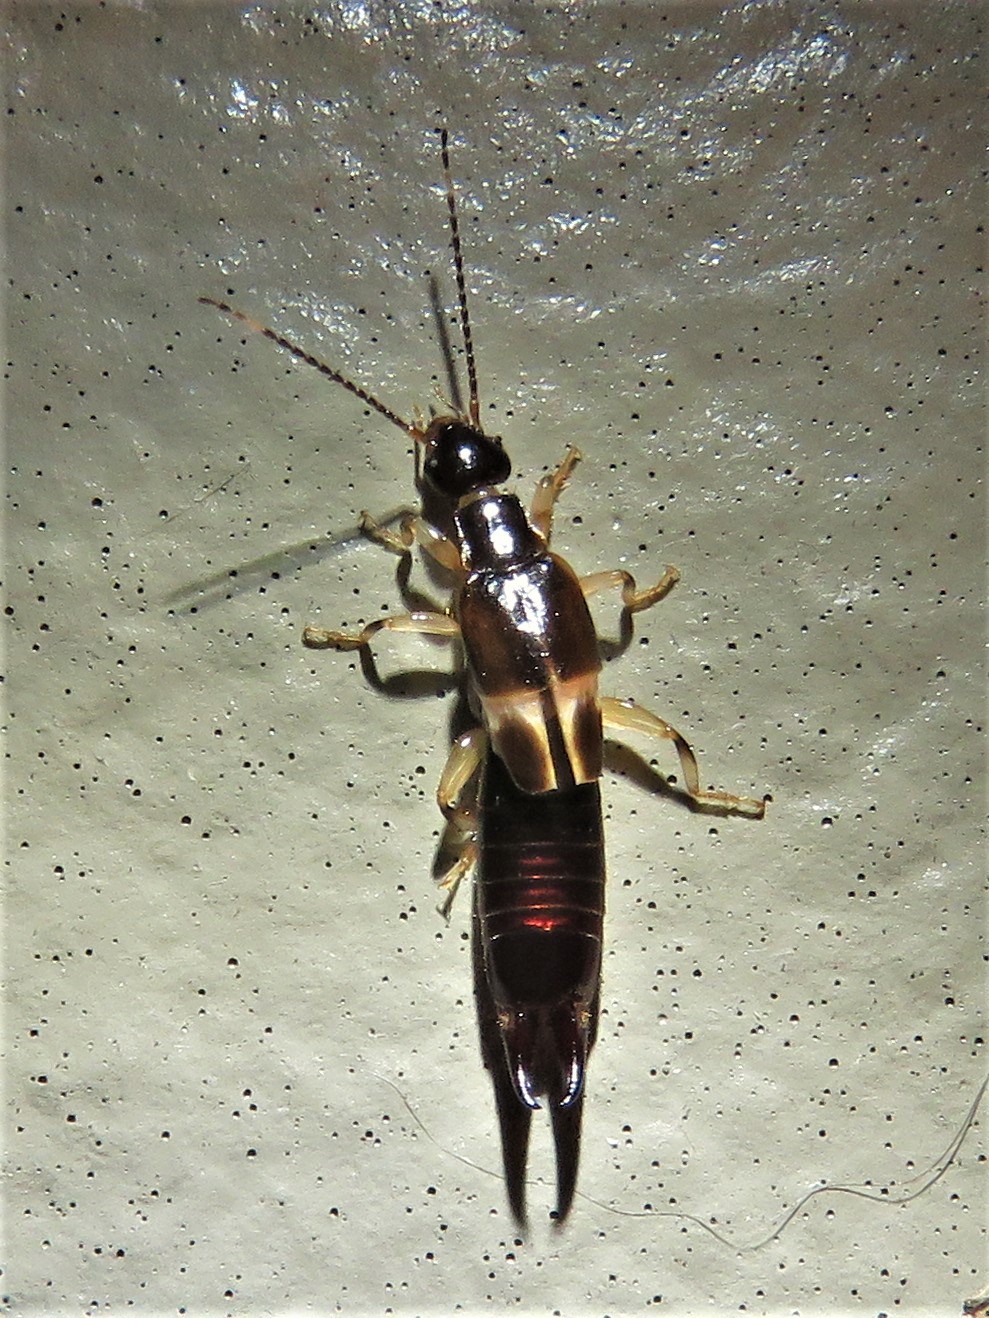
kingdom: Animalia
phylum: Arthropoda
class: Insecta
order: Dermaptera
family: Anisolabididae
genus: Euborellia
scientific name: Euborellia cincticollis
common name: African earwig
